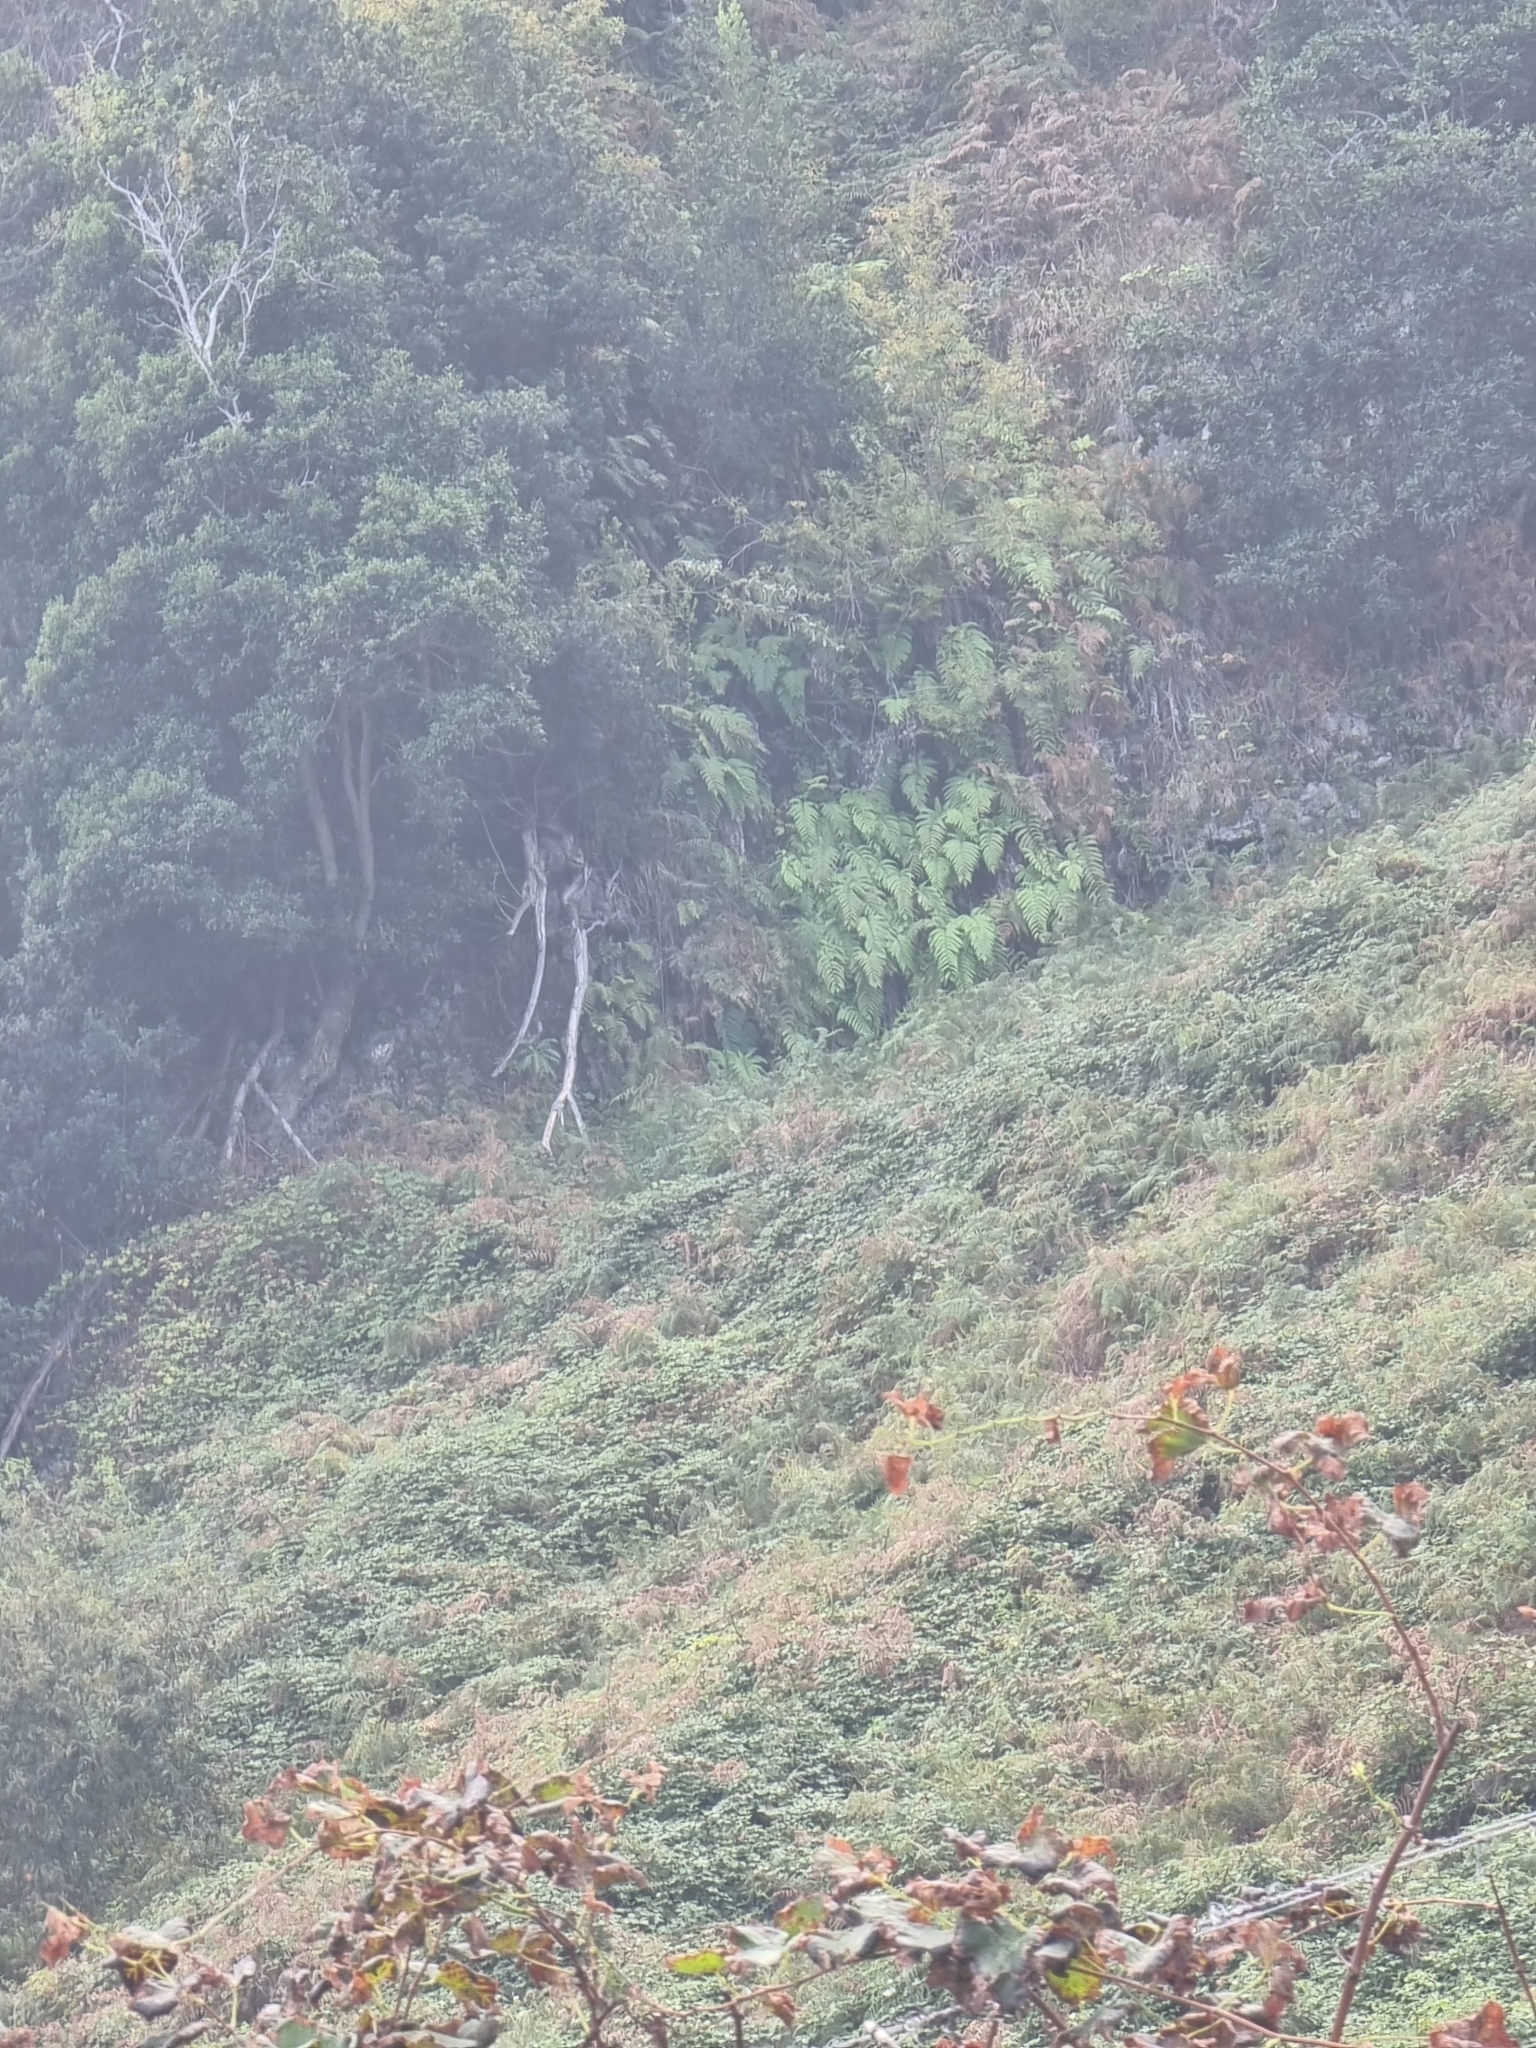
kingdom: Plantae
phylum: Tracheophyta
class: Polypodiopsida
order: Polypodiales
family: Blechnaceae
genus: Woodwardia
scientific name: Woodwardia radicans
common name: Rooting chainfern
